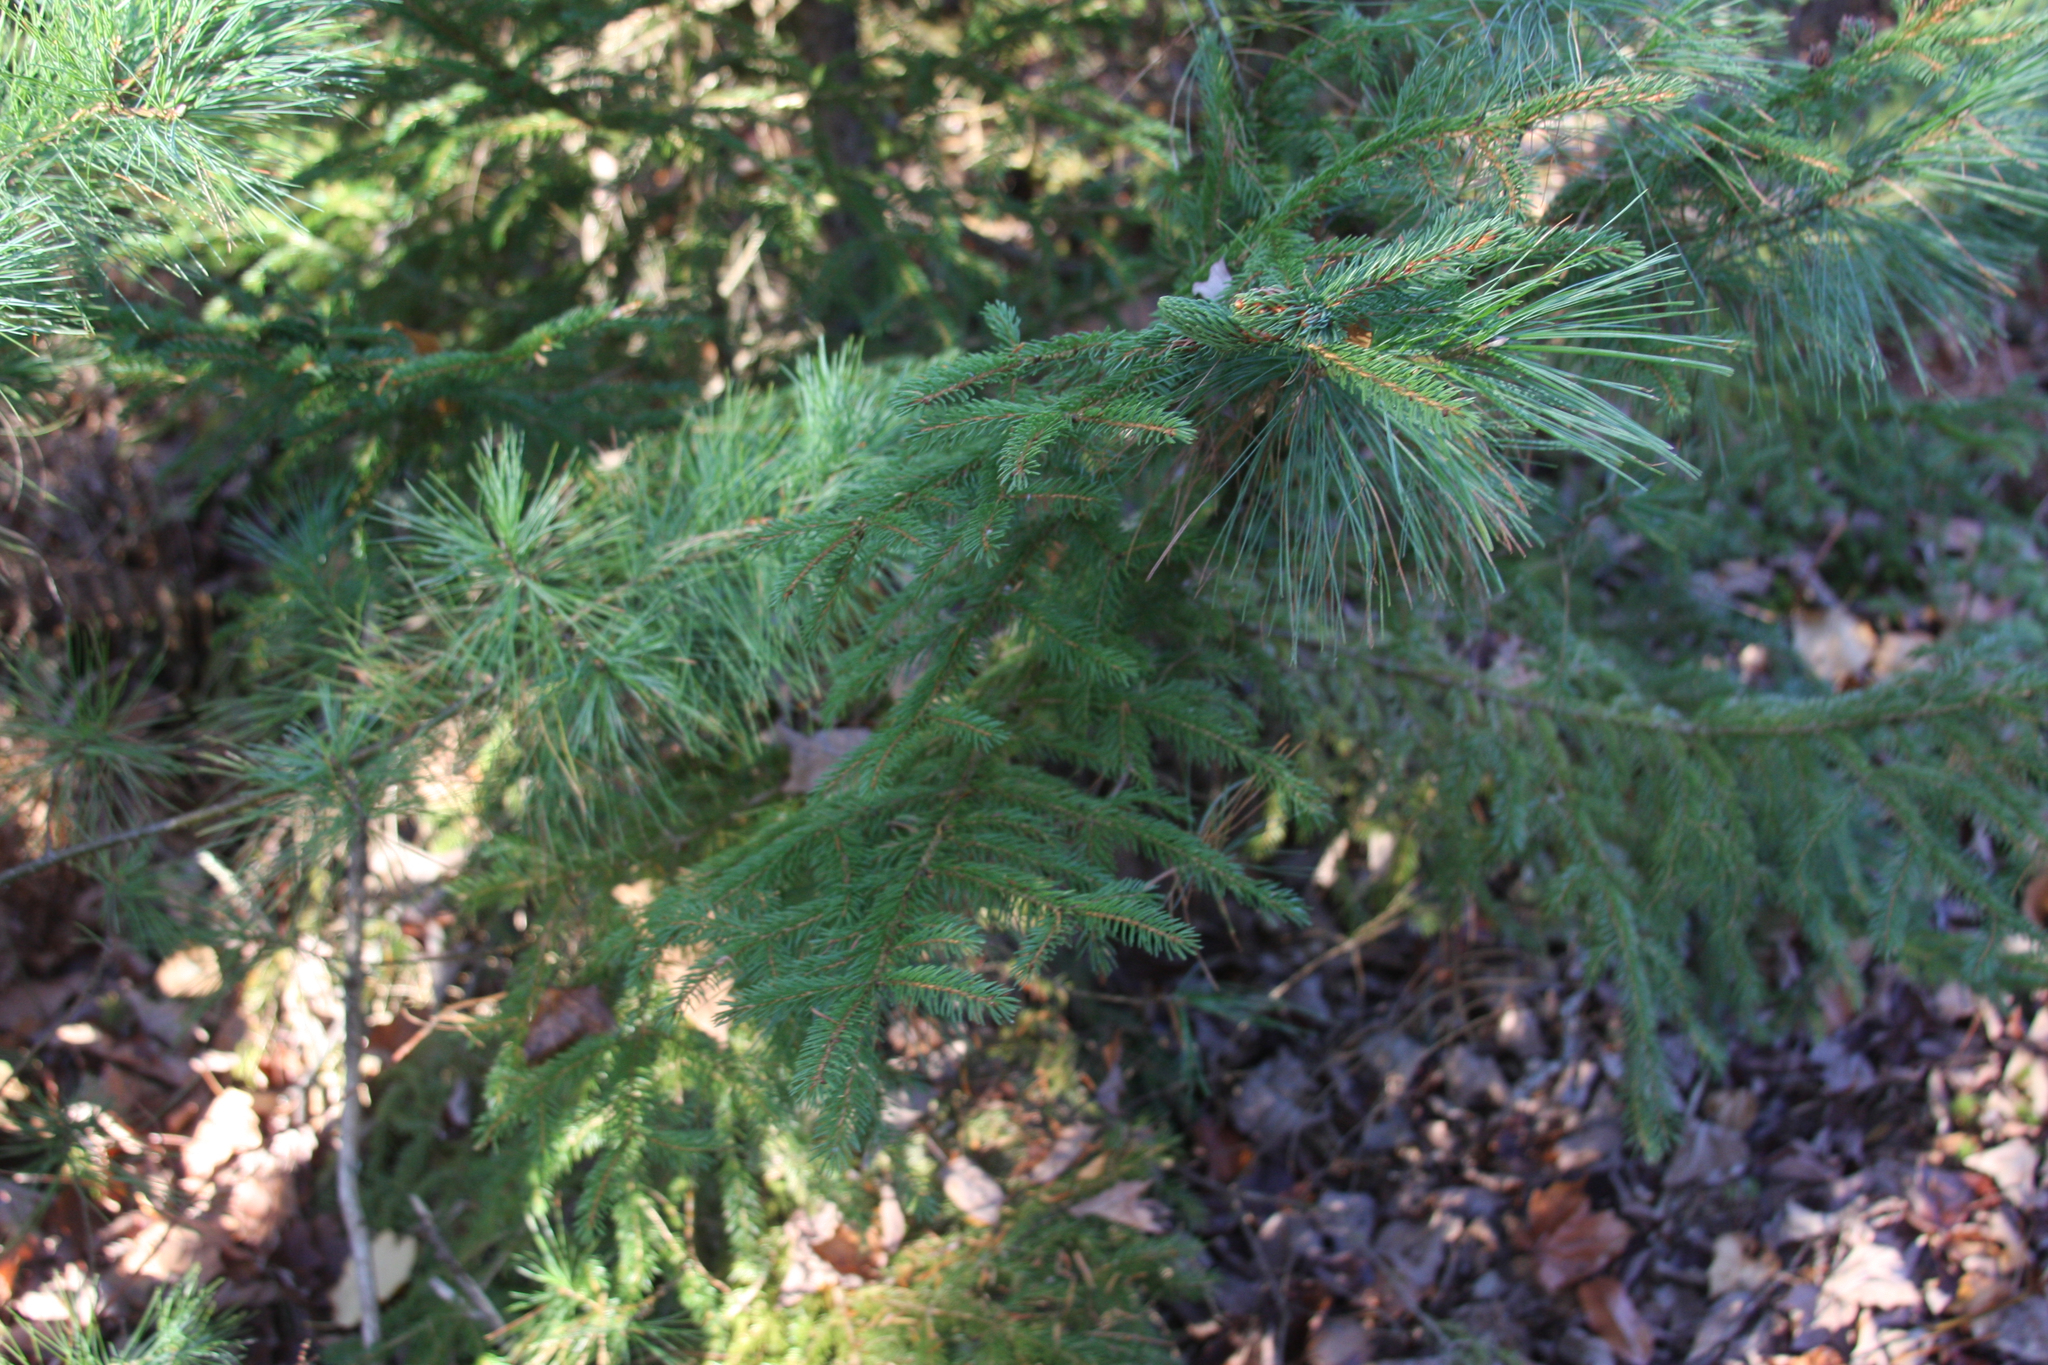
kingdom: Plantae
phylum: Tracheophyta
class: Pinopsida
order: Pinales
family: Pinaceae
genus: Pinus
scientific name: Pinus strobus
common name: Weymouth pine
